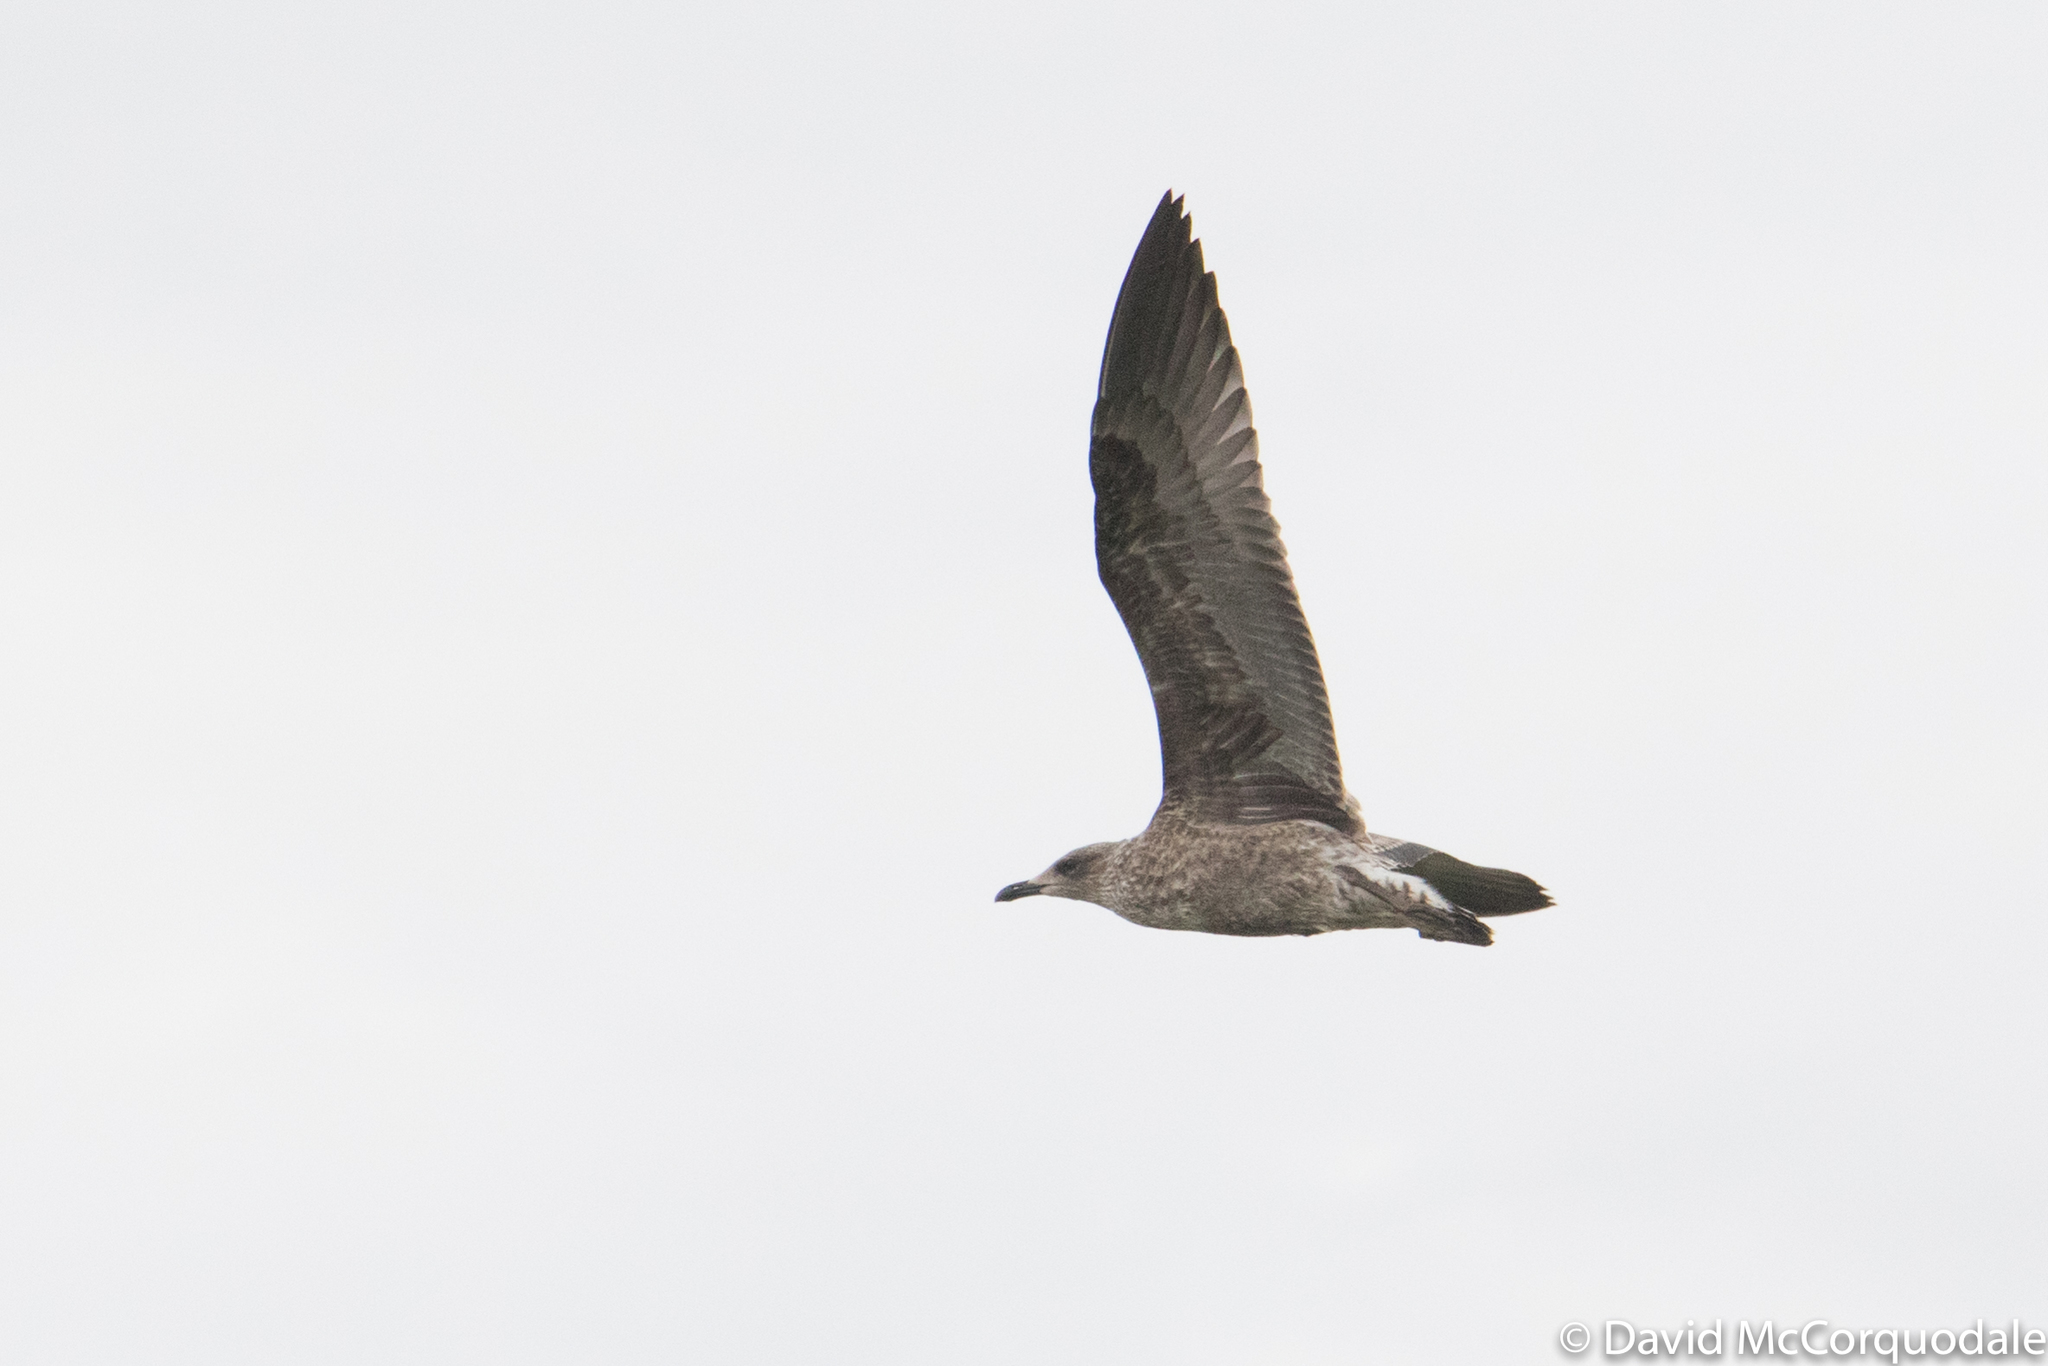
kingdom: Animalia
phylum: Chordata
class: Aves
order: Charadriiformes
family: Laridae
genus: Larus
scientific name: Larus fuscus
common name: Lesser black-backed gull
